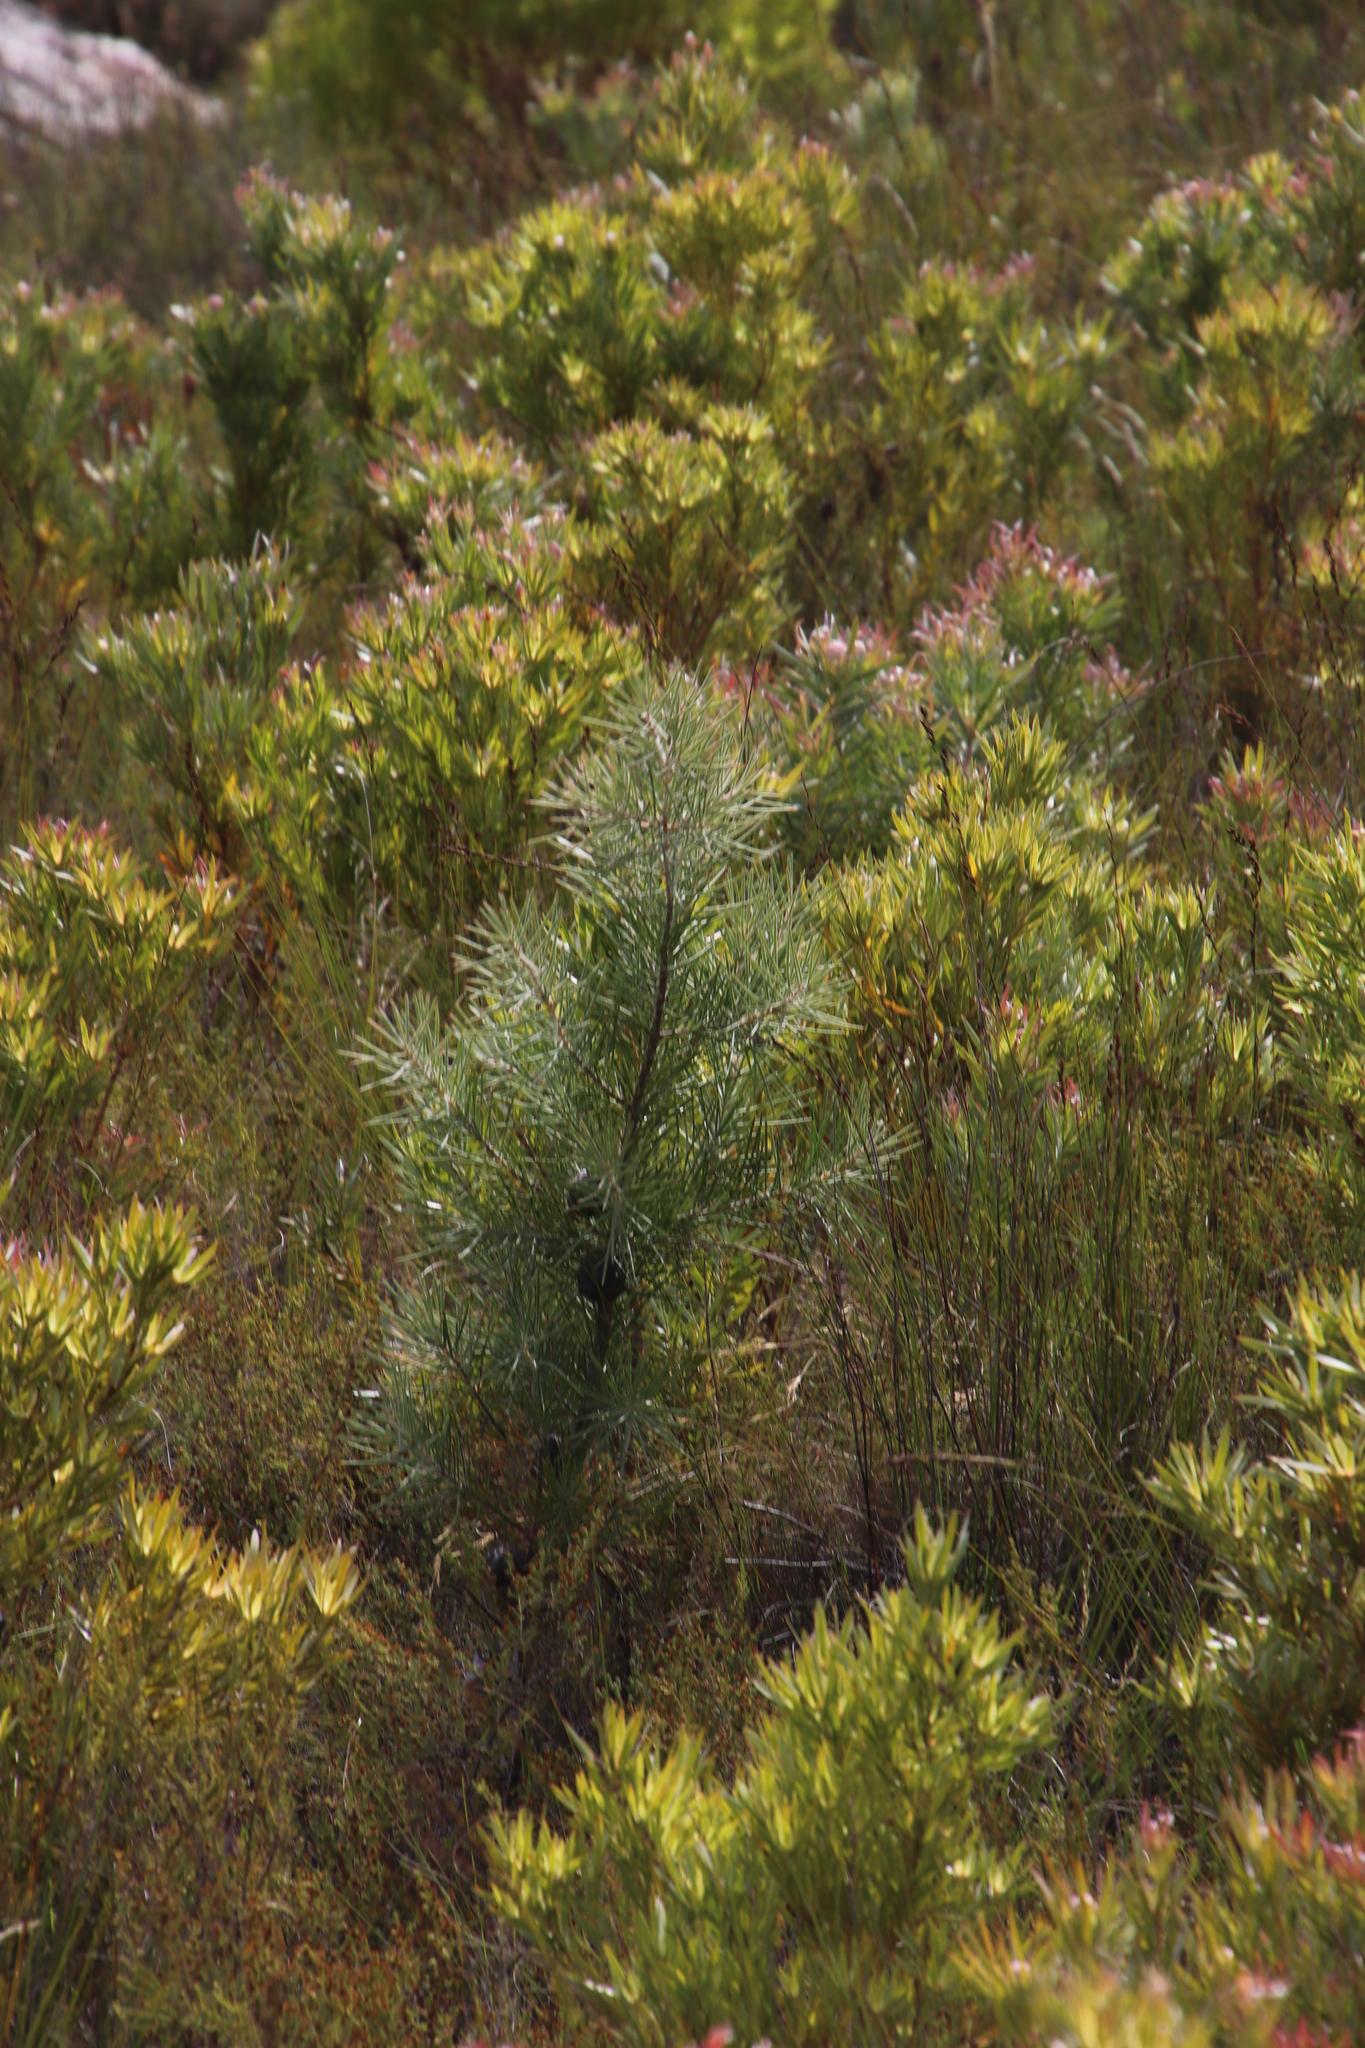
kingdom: Plantae
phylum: Tracheophyta
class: Magnoliopsida
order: Proteales
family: Proteaceae
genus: Hakea
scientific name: Hakea gibbosa
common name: Rock hakea
